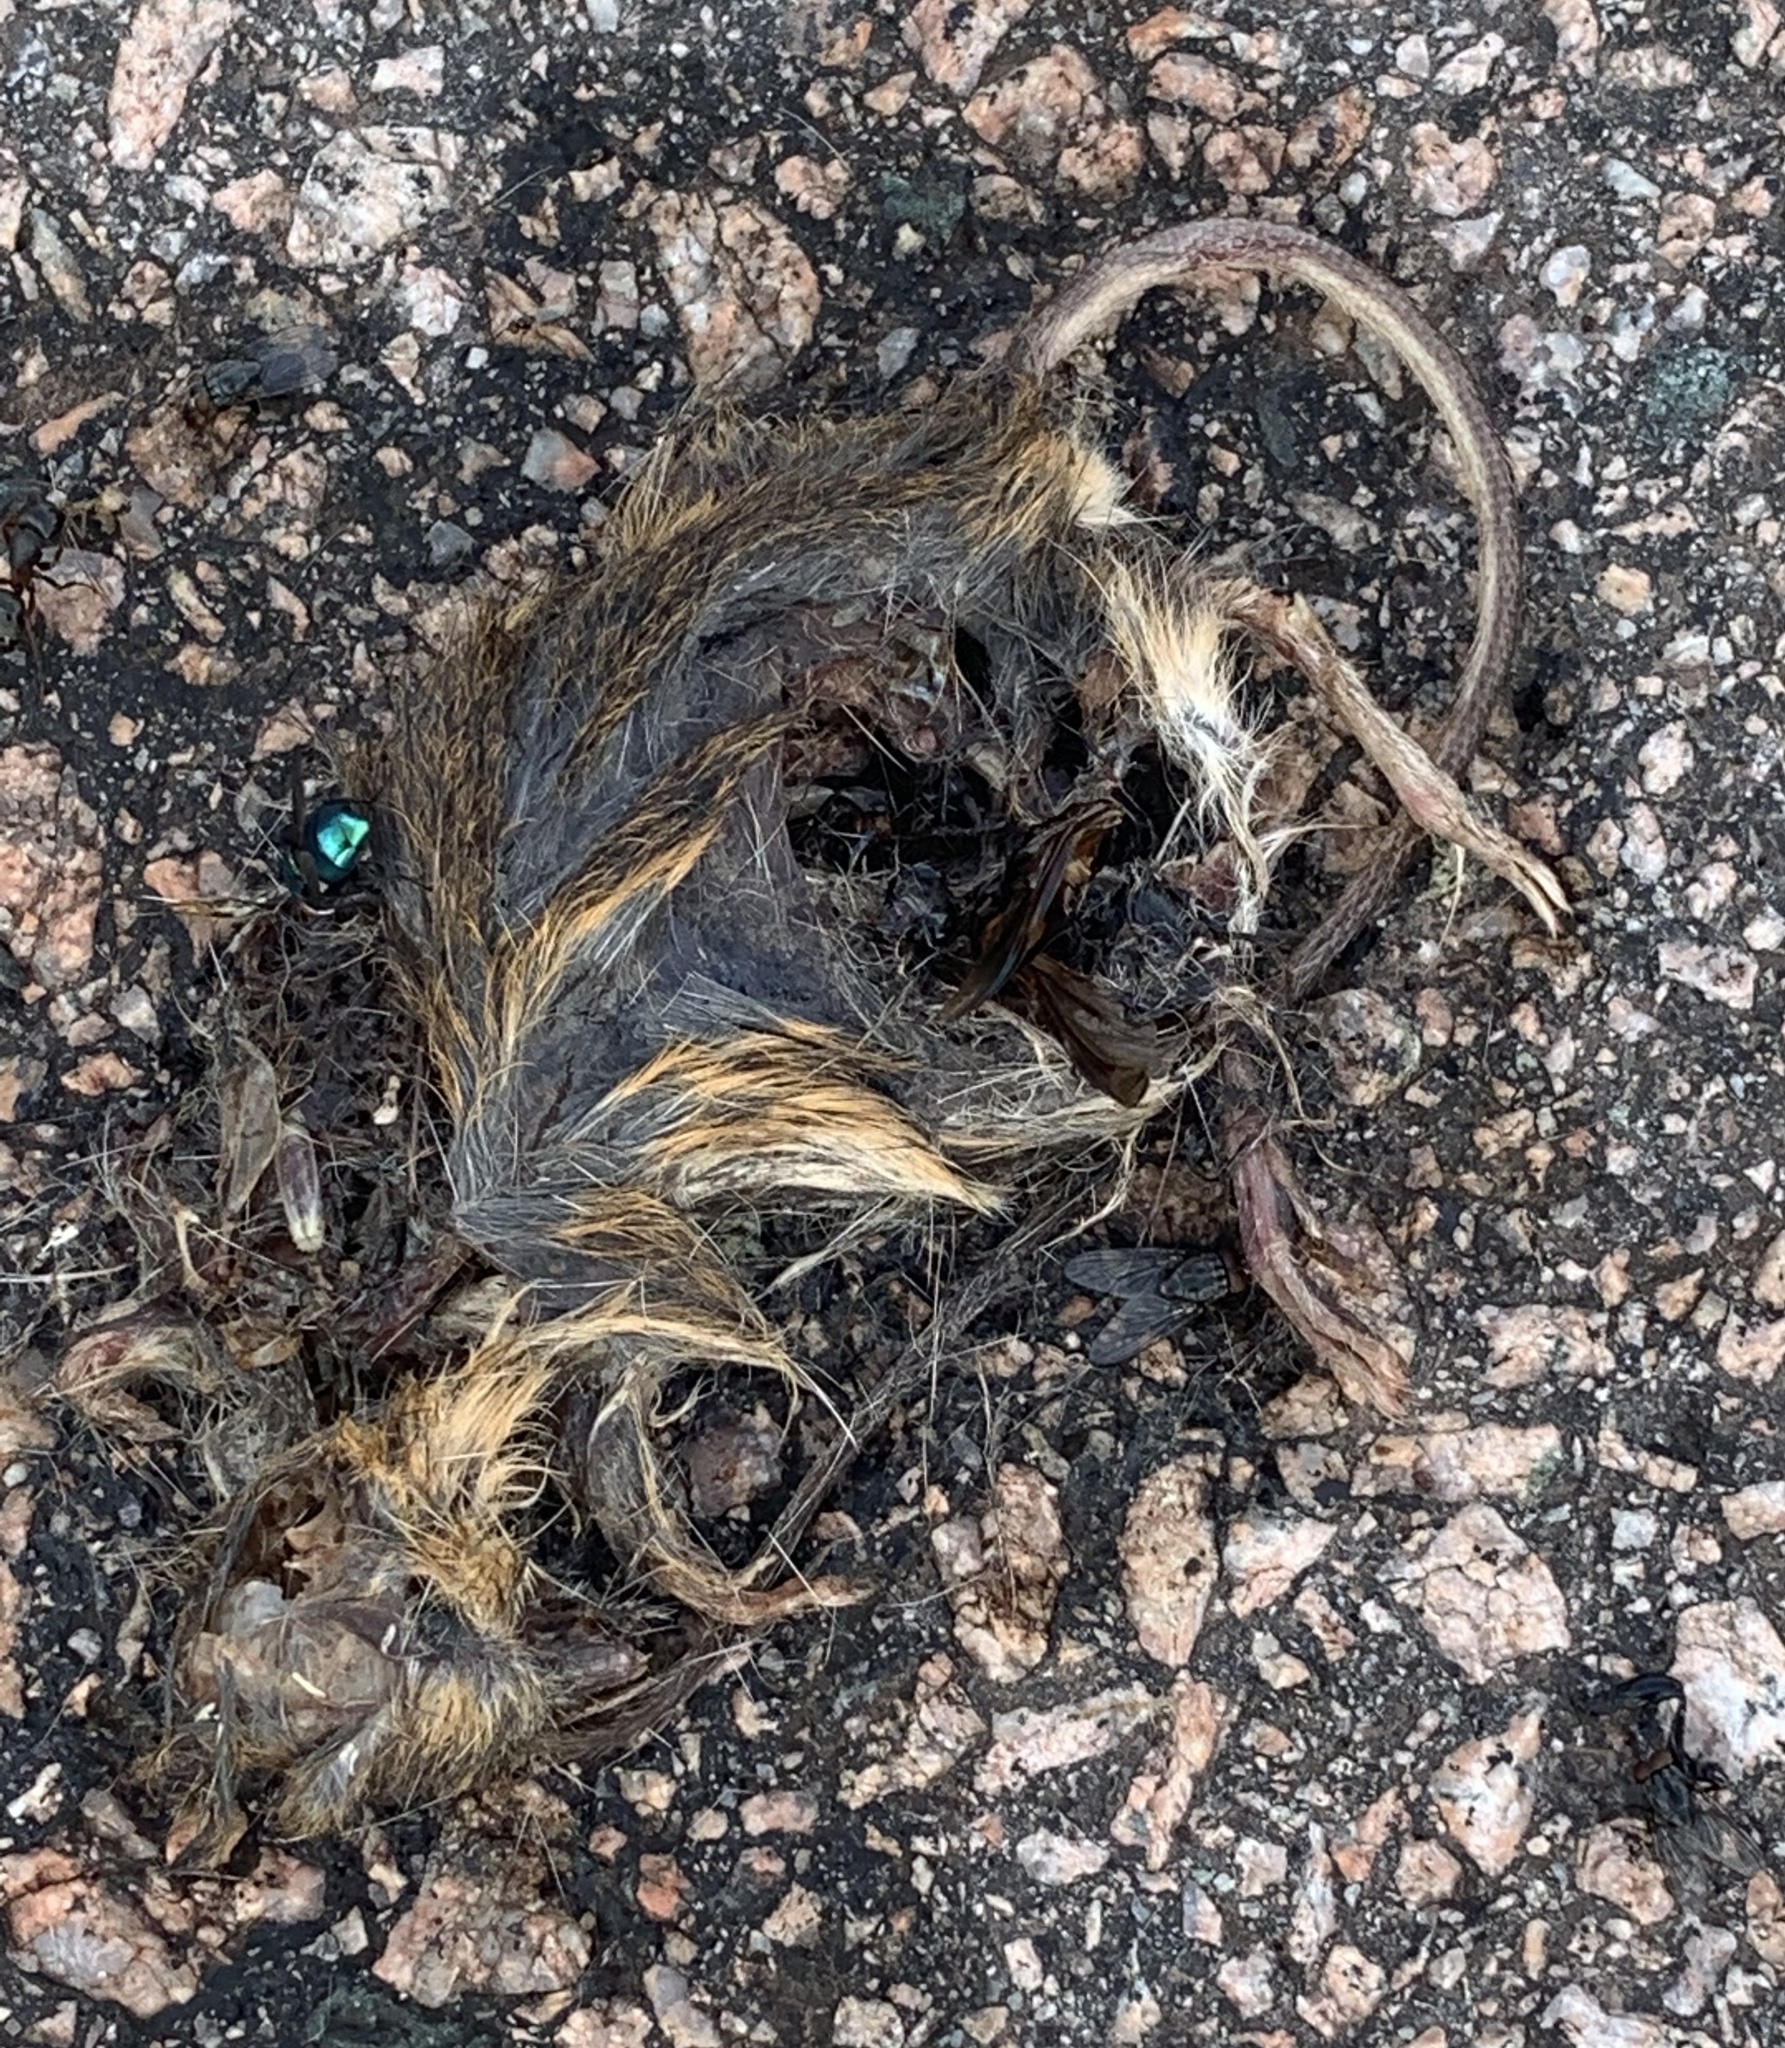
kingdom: Animalia
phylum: Chordata
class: Mammalia
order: Rodentia
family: Dipodidae
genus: Zapus
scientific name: Zapus hudsonius
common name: Meadow jumping mouse
